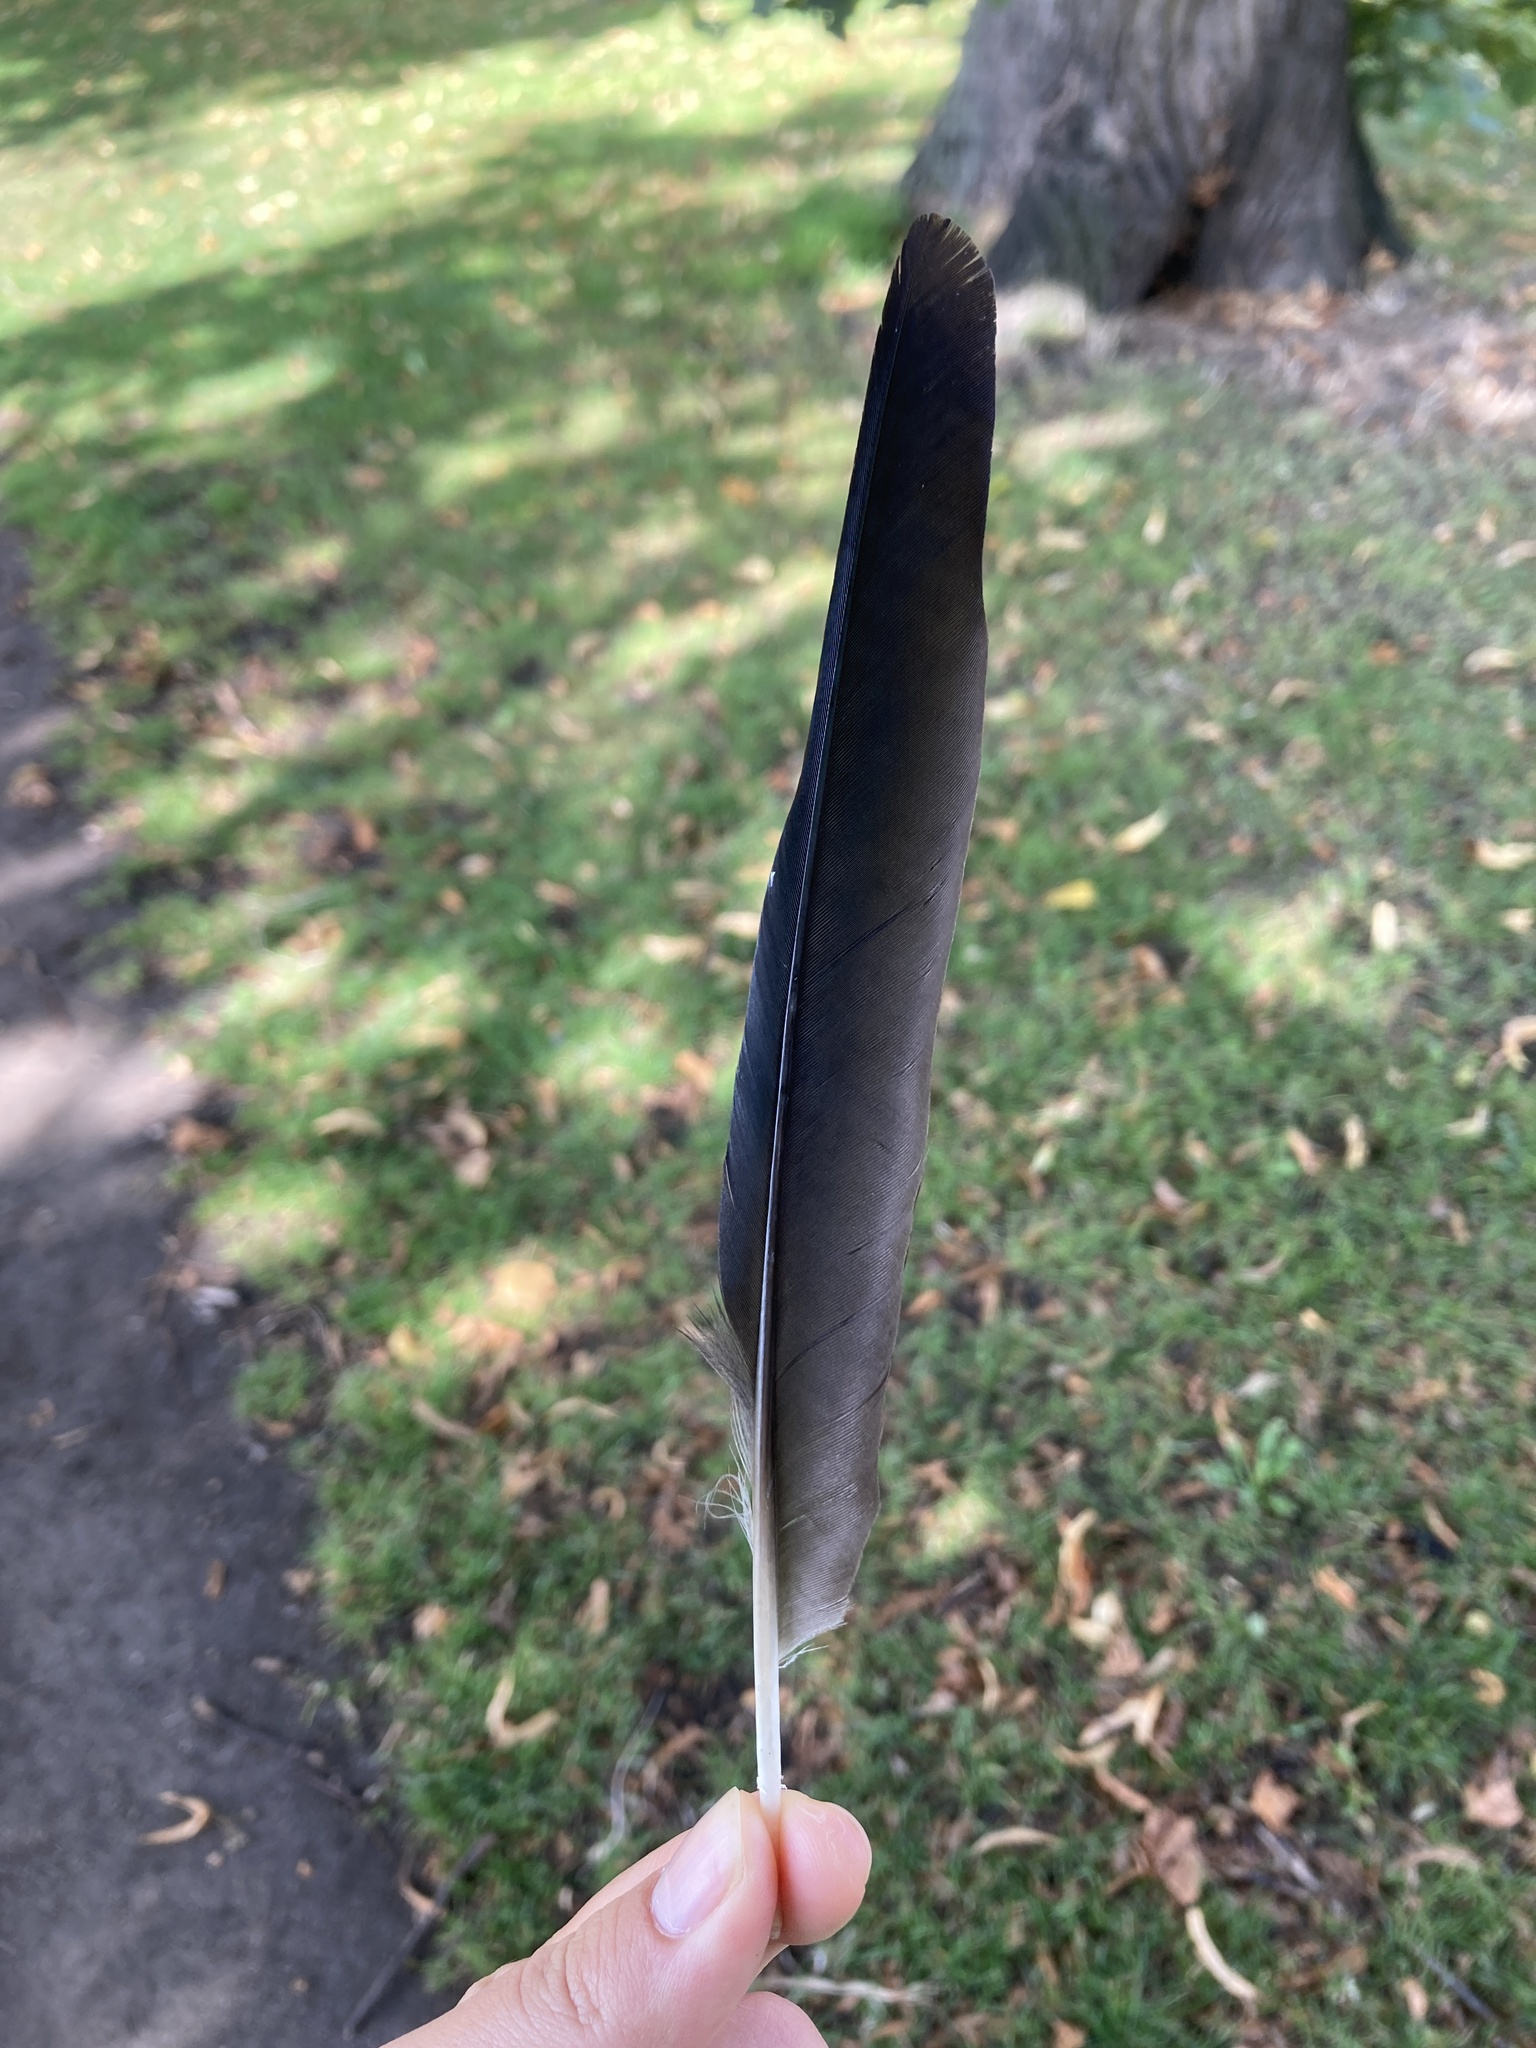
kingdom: Animalia
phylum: Chordata
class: Aves
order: Passeriformes
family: Corvidae
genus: Coloeus
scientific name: Coloeus monedula
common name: Western jackdaw
